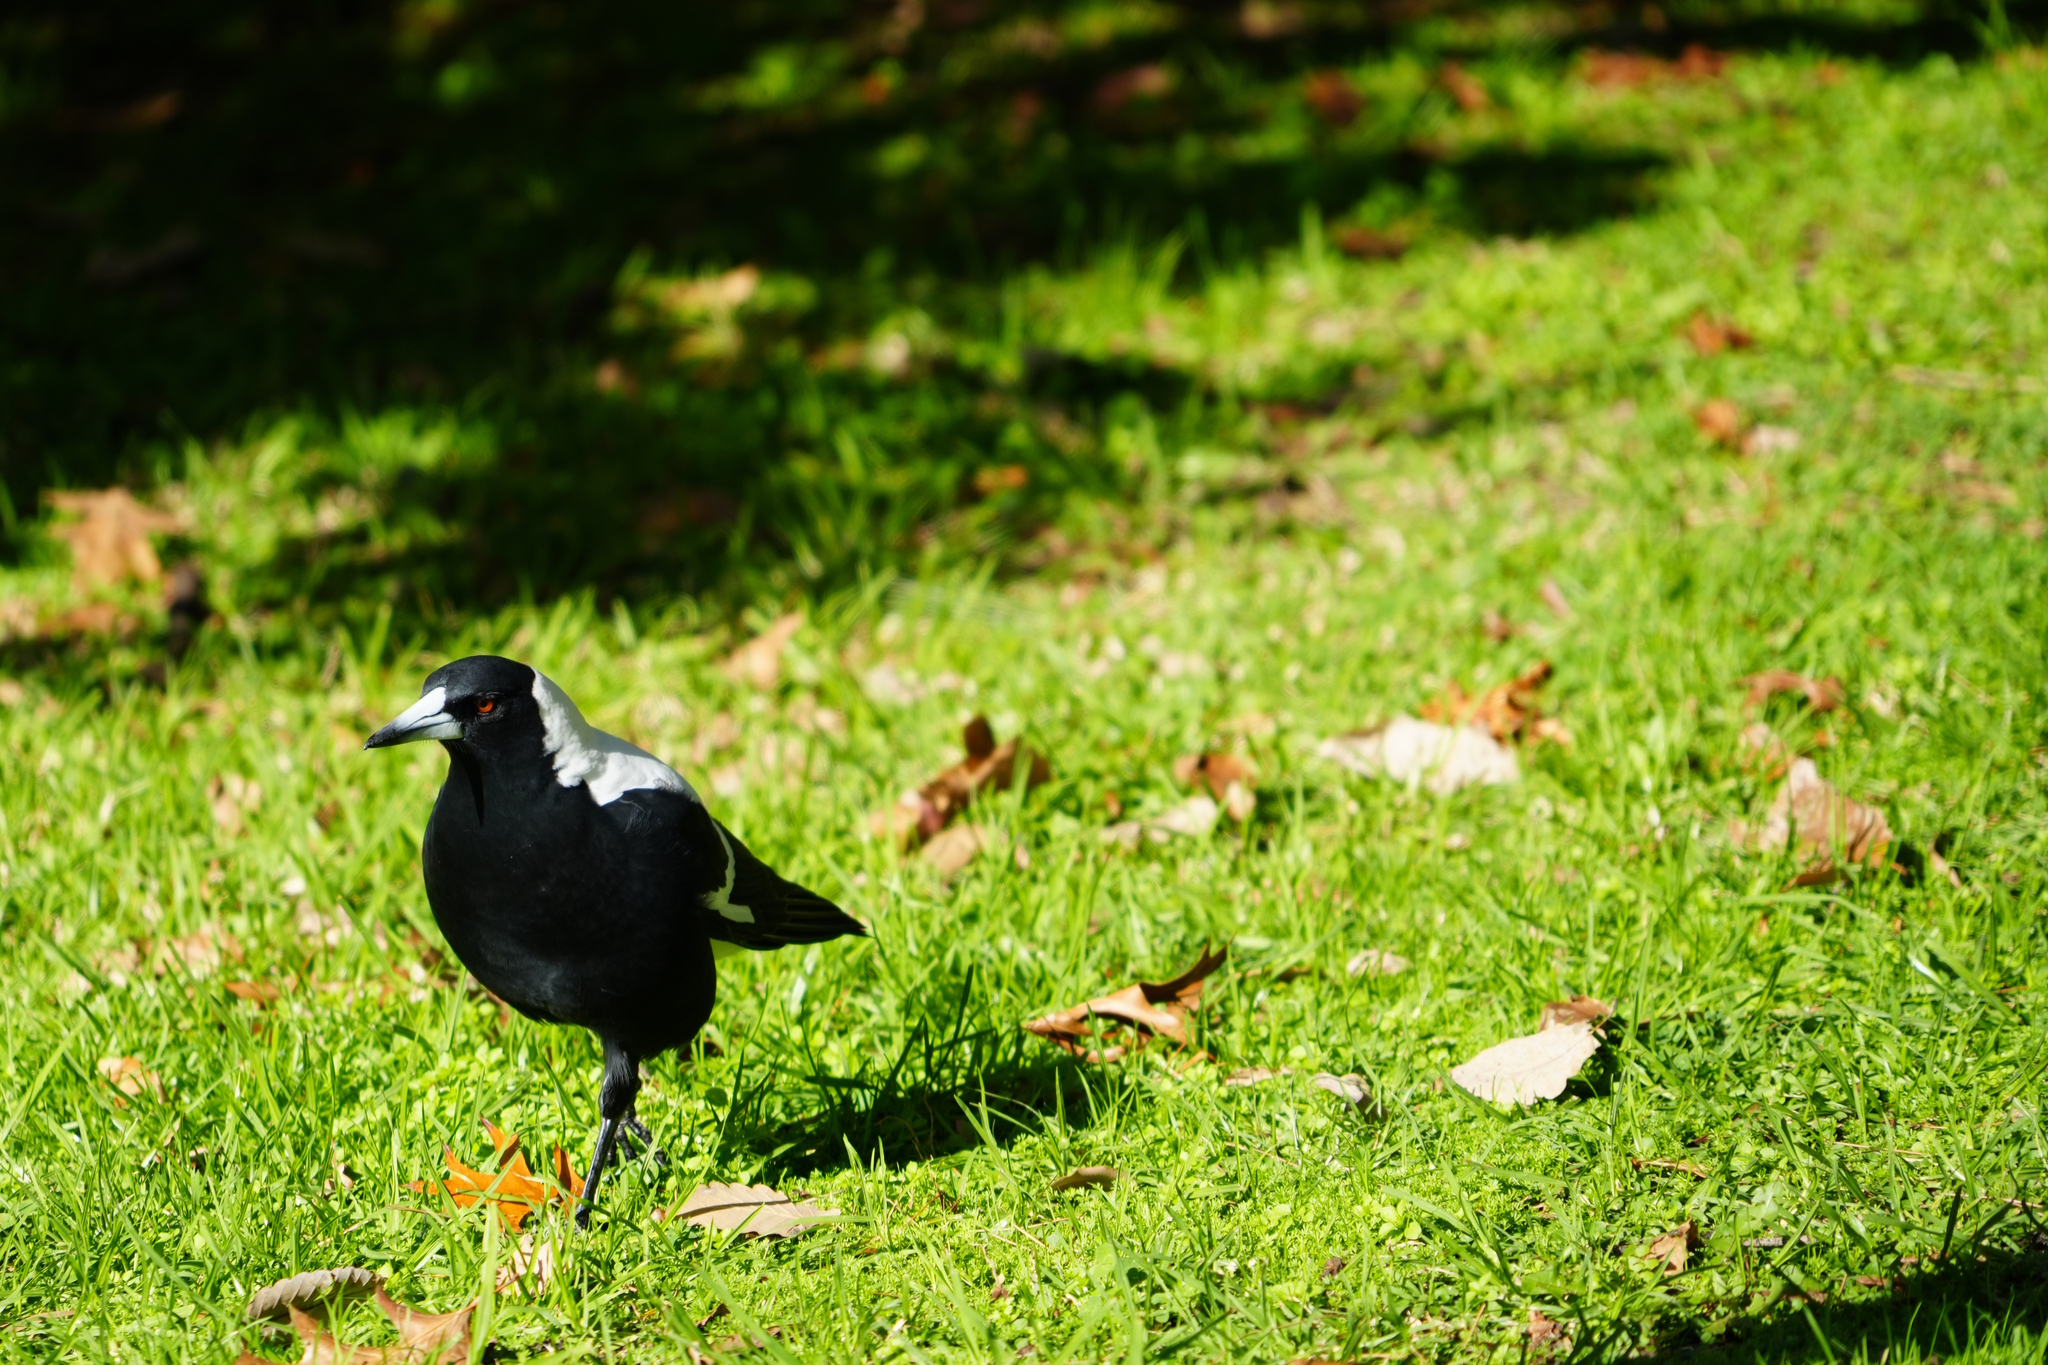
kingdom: Animalia
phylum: Chordata
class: Aves
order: Passeriformes
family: Cracticidae
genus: Gymnorhina
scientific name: Gymnorhina tibicen
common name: Australian magpie
